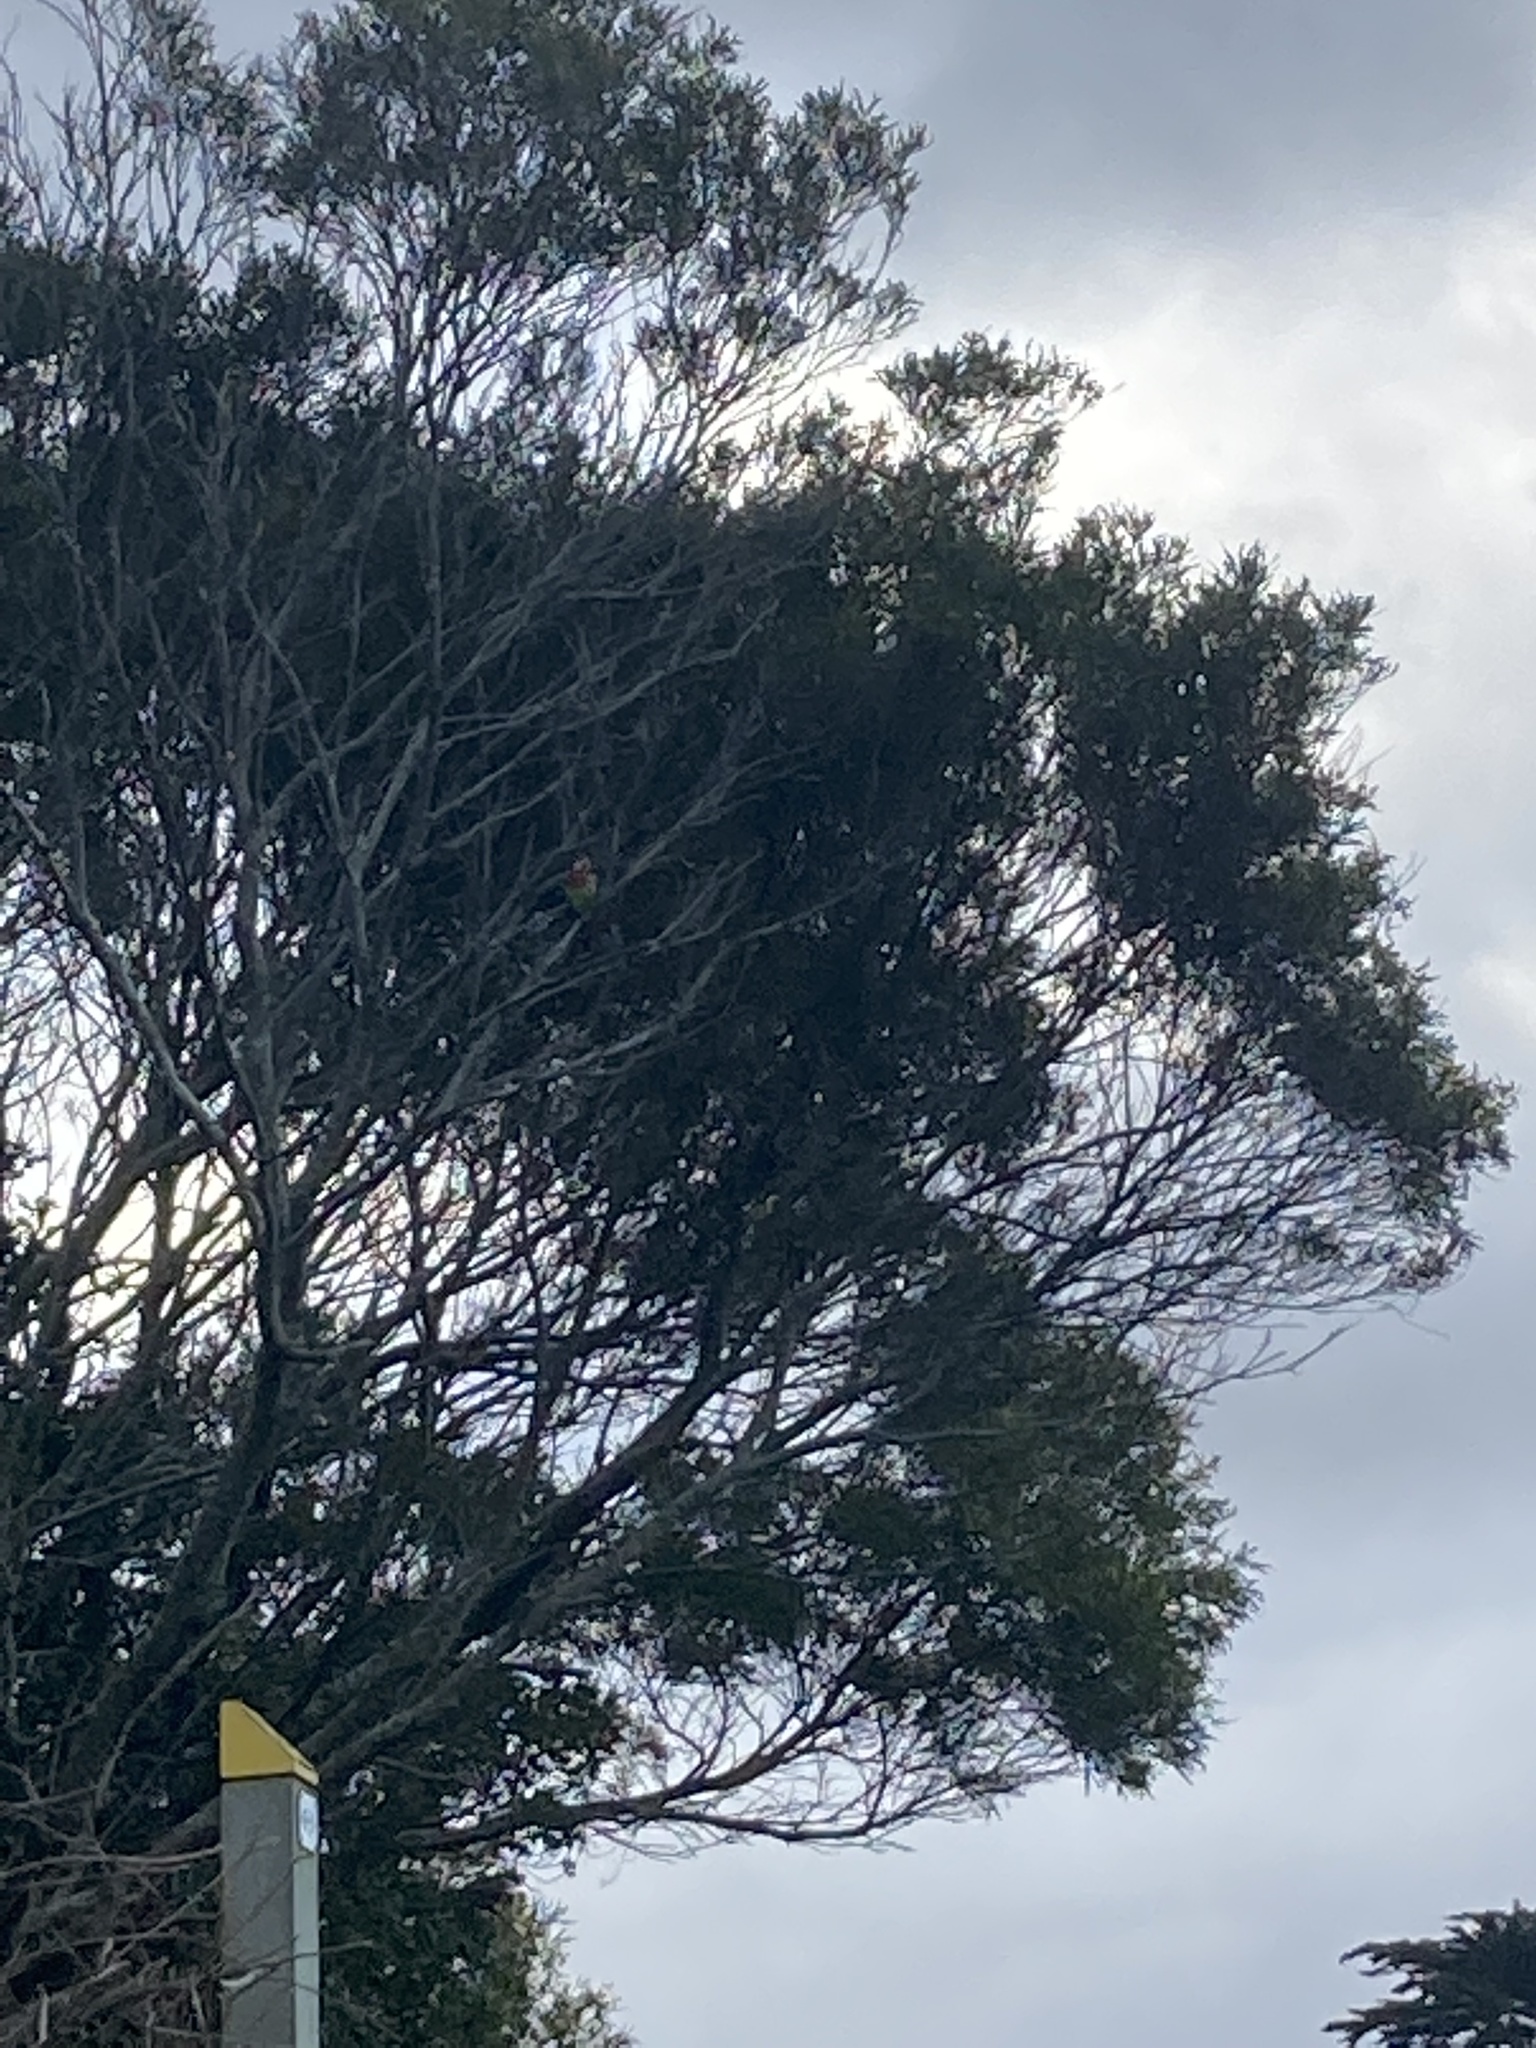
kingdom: Animalia
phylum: Chordata
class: Aves
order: Psittaciformes
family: Psittacidae
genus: Platycercus
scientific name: Platycercus eximius
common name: Eastern rosella
